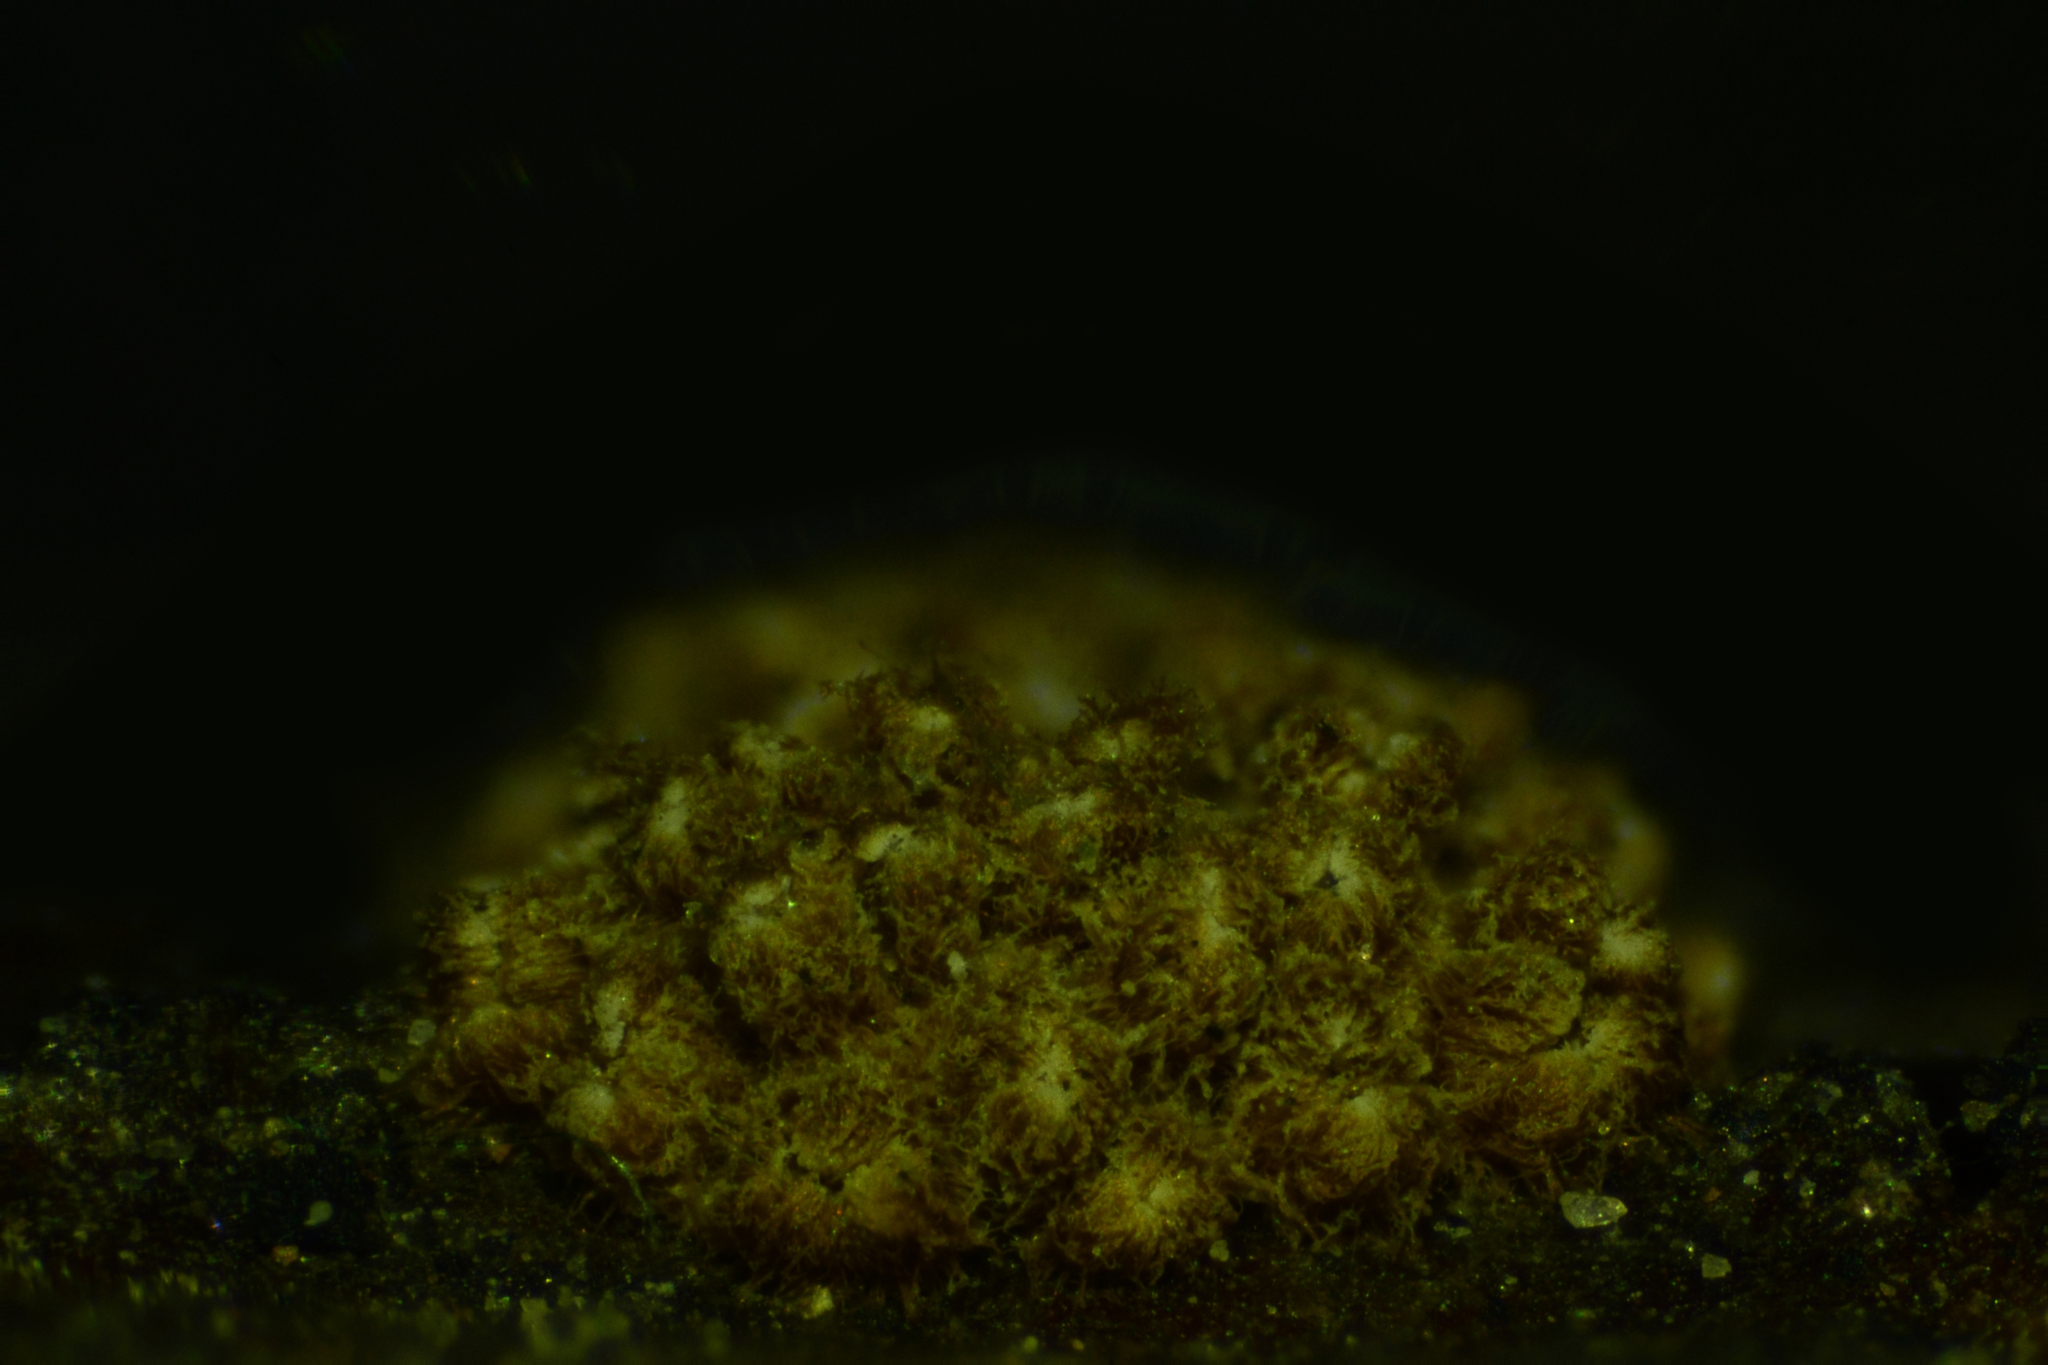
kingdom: Fungi
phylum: Basidiomycota
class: Agaricomycetes
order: Agaricales
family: Niaceae
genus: Merismodes
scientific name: Merismodes fasciculata
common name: Crowded cuplet
